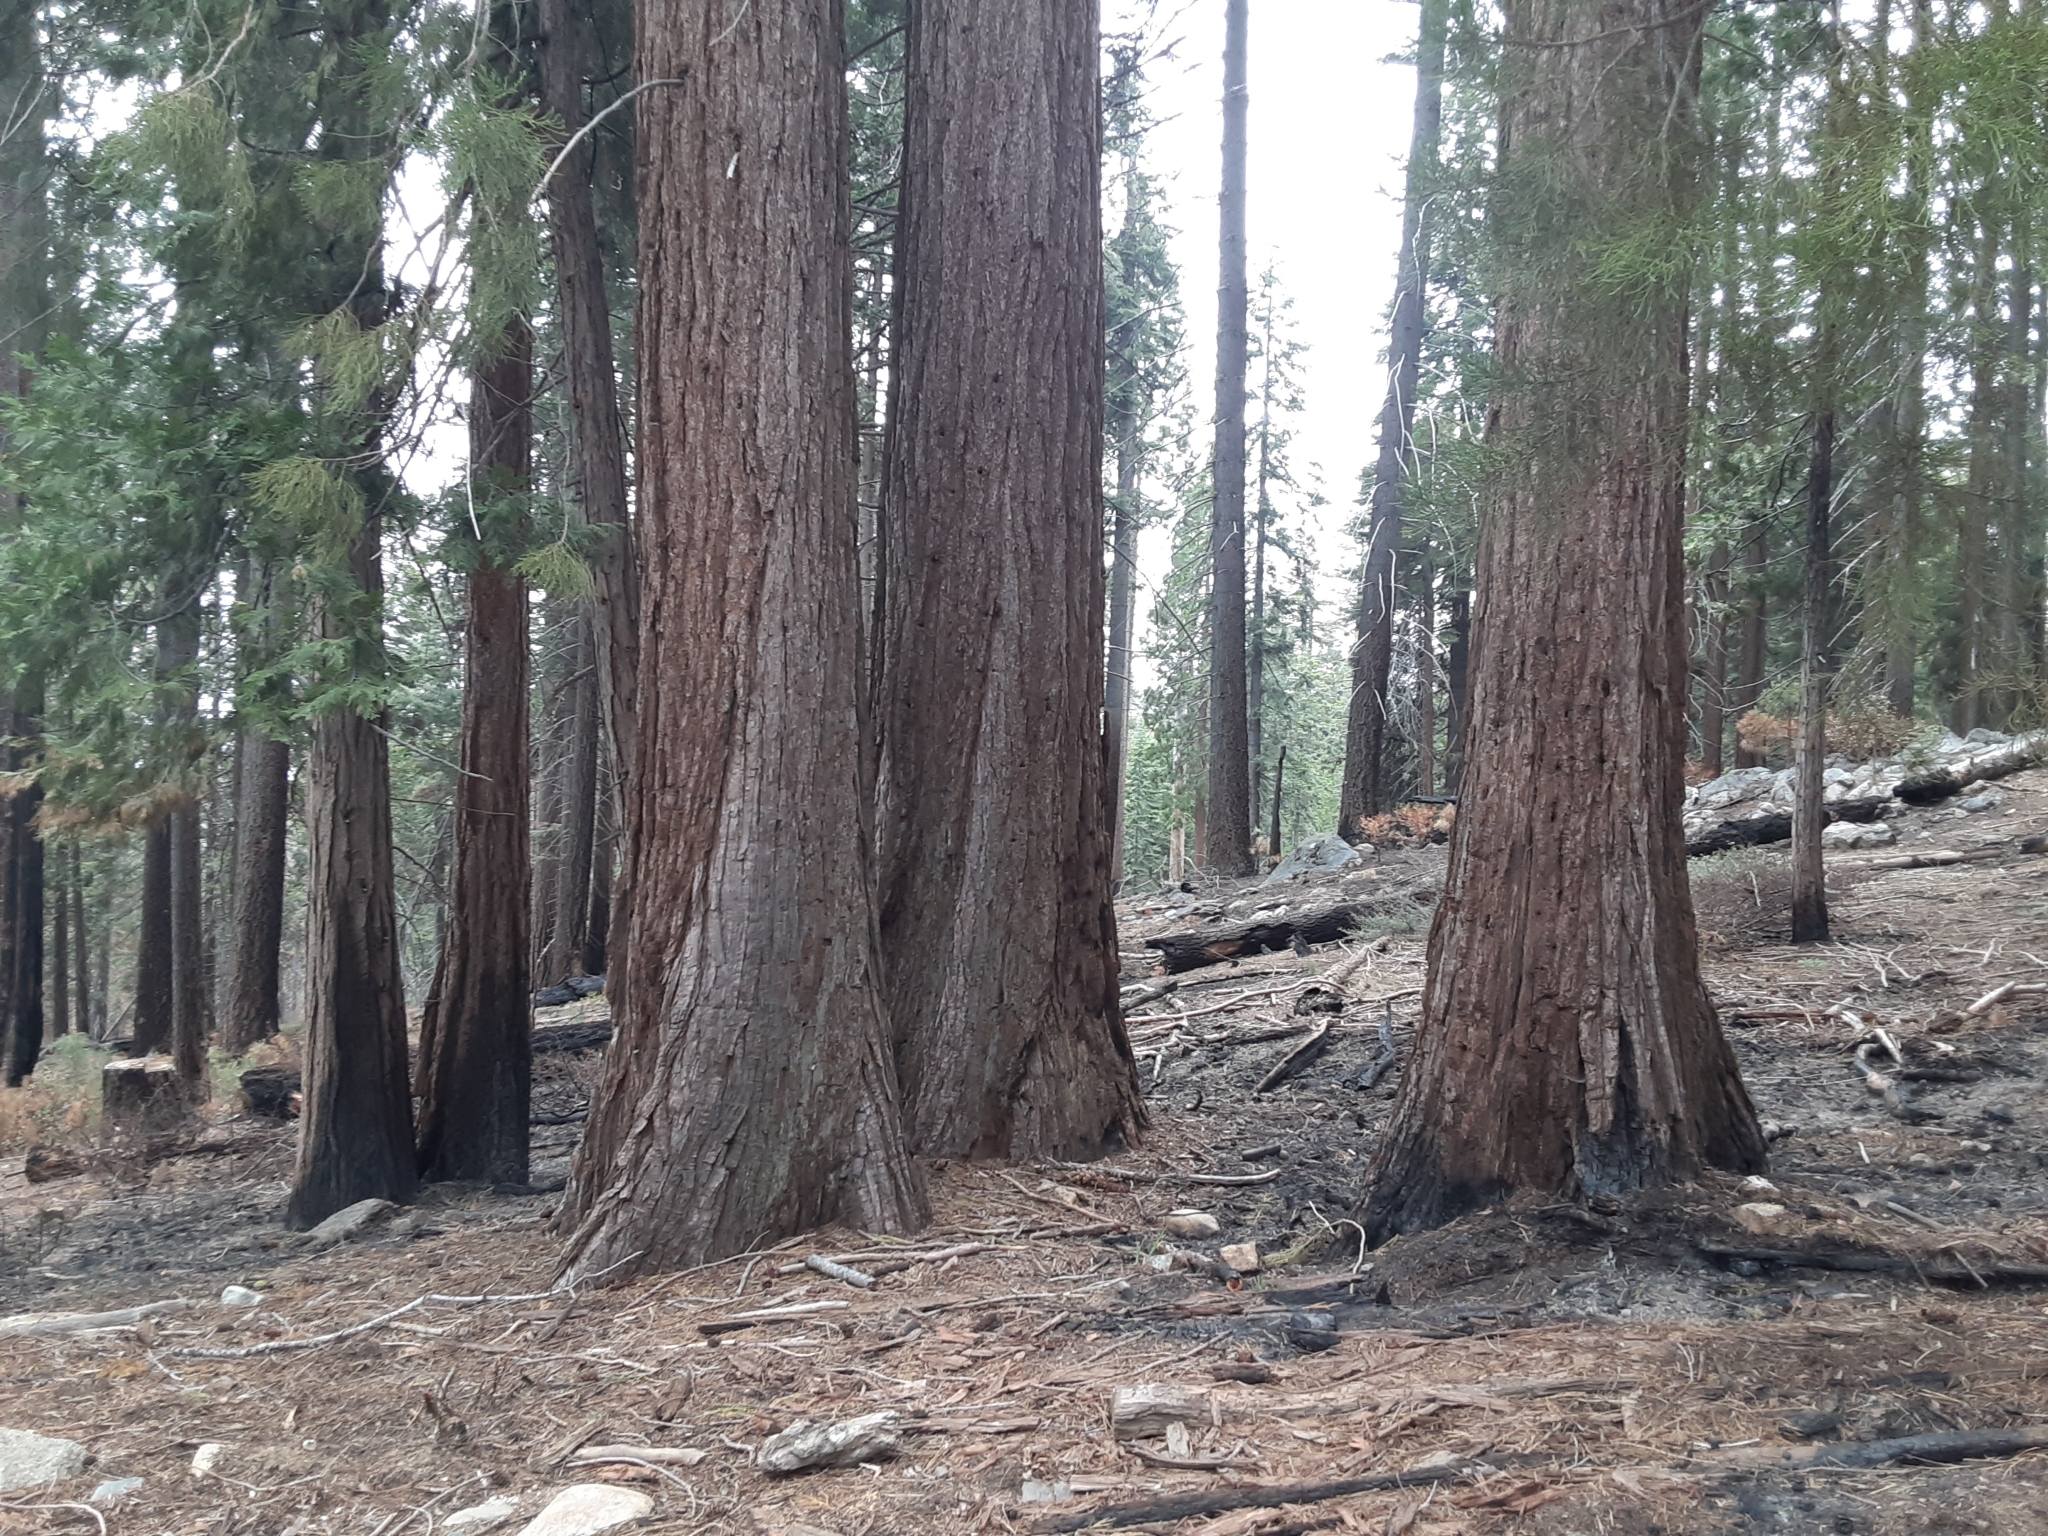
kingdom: Plantae
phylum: Tracheophyta
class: Pinopsida
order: Pinales
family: Cupressaceae
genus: Sequoiadendron
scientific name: Sequoiadendron giganteum
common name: Wellingtonia
